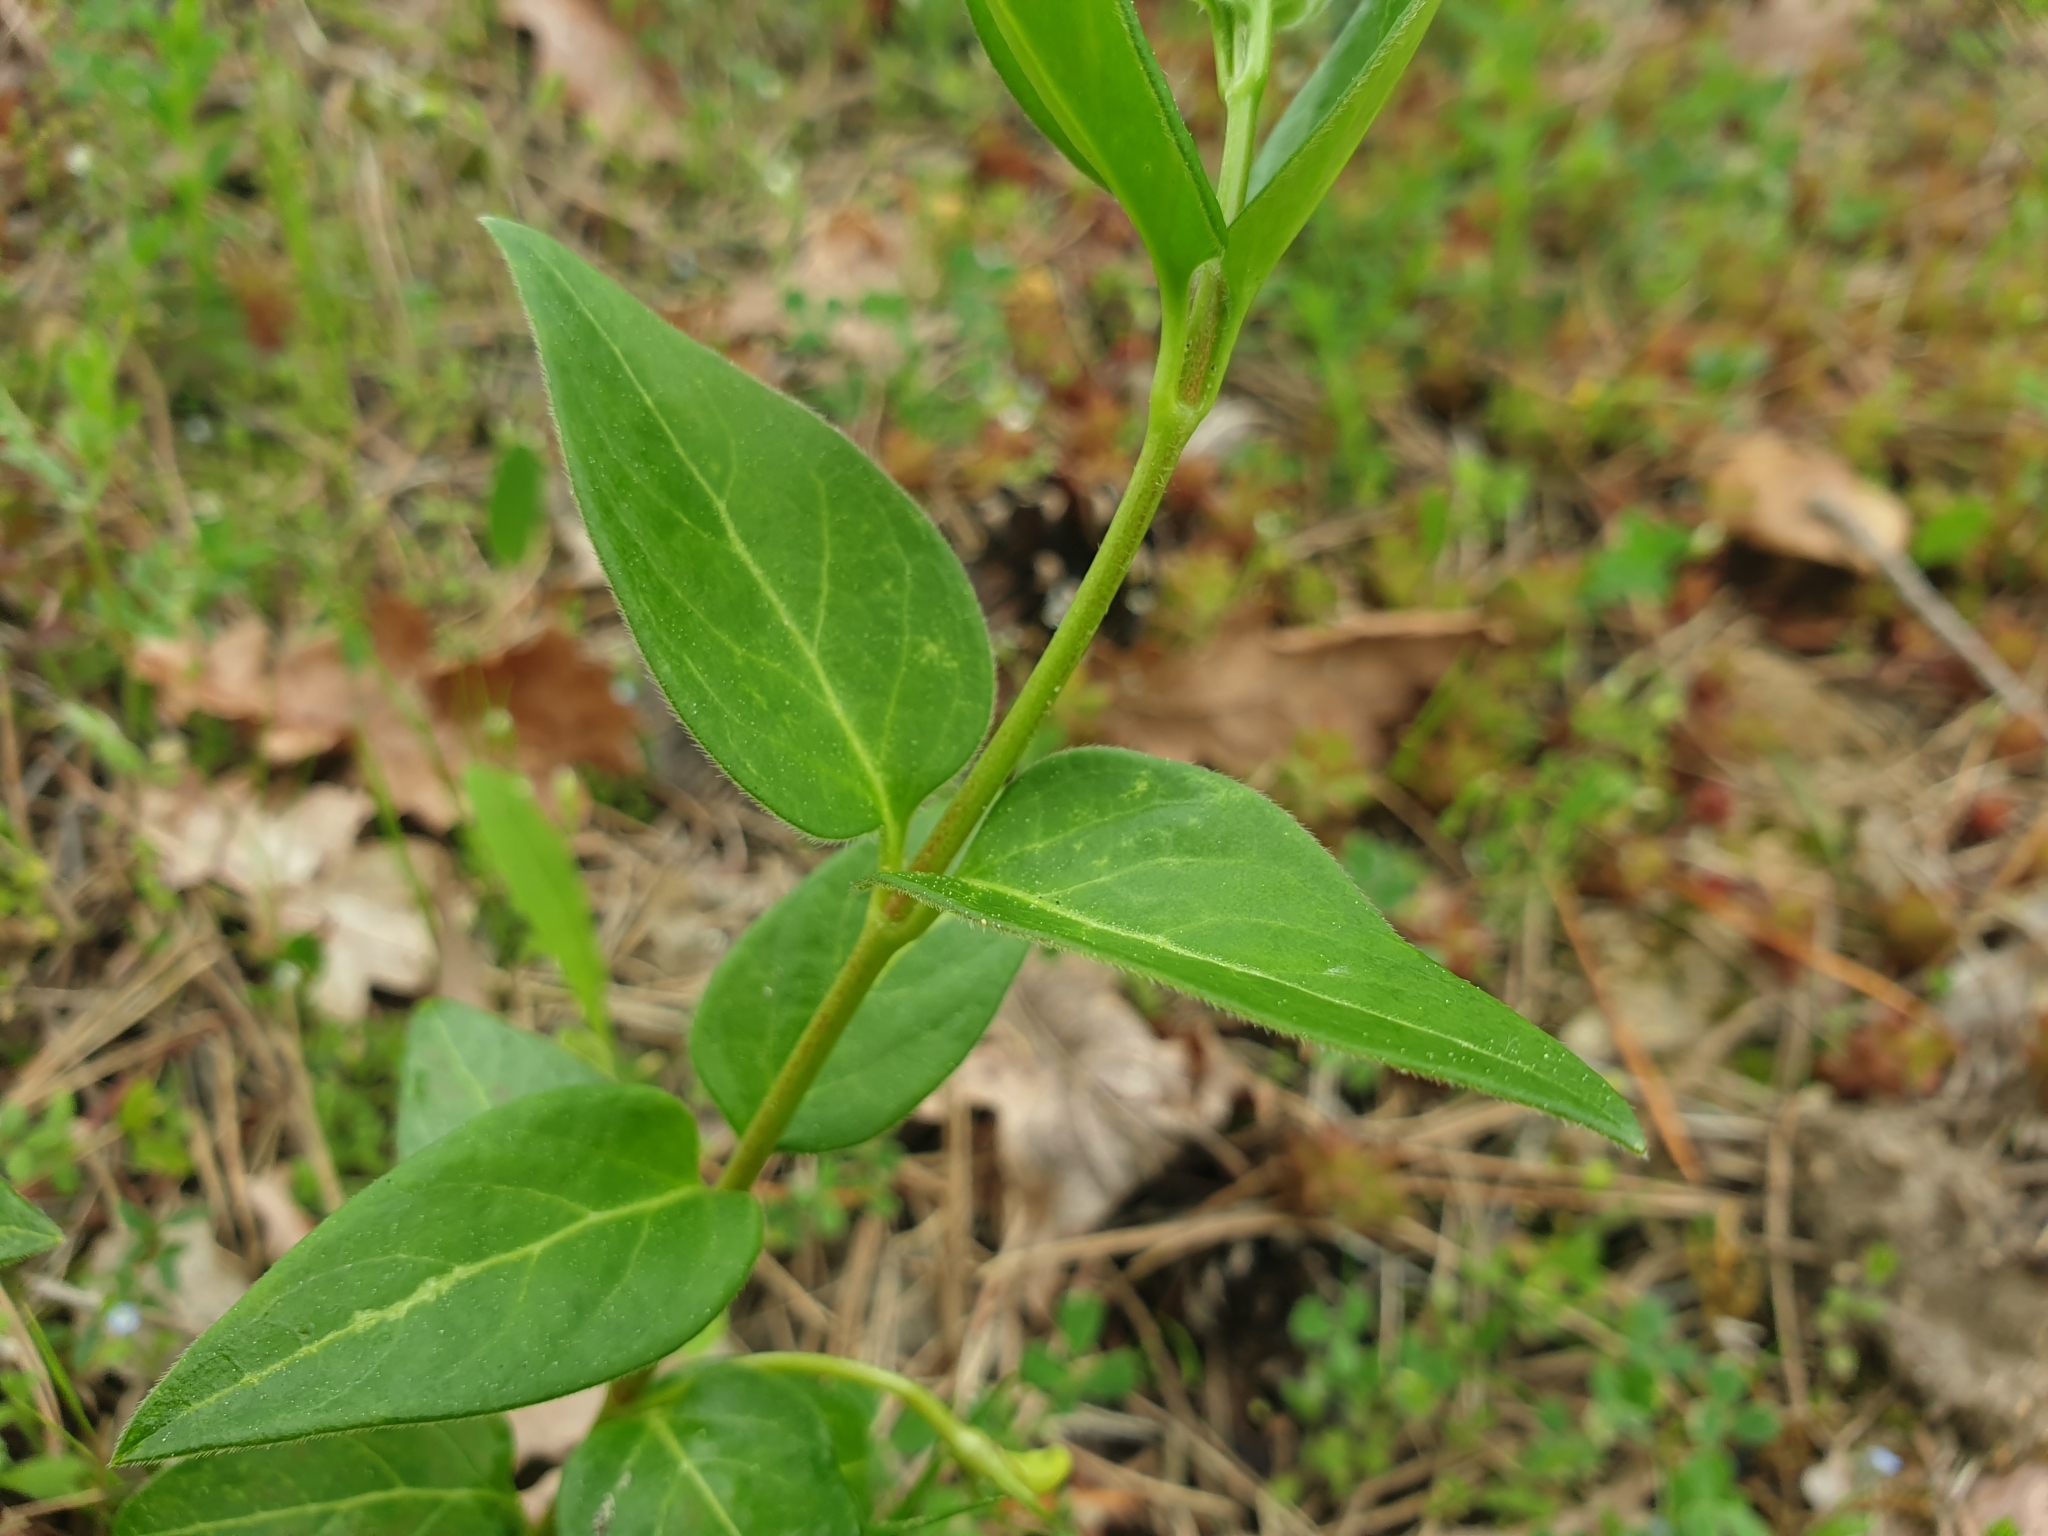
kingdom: Plantae
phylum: Tracheophyta
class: Magnoliopsida
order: Gentianales
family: Apocynaceae
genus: Vinca
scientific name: Vinca major
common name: Greater periwinkle
